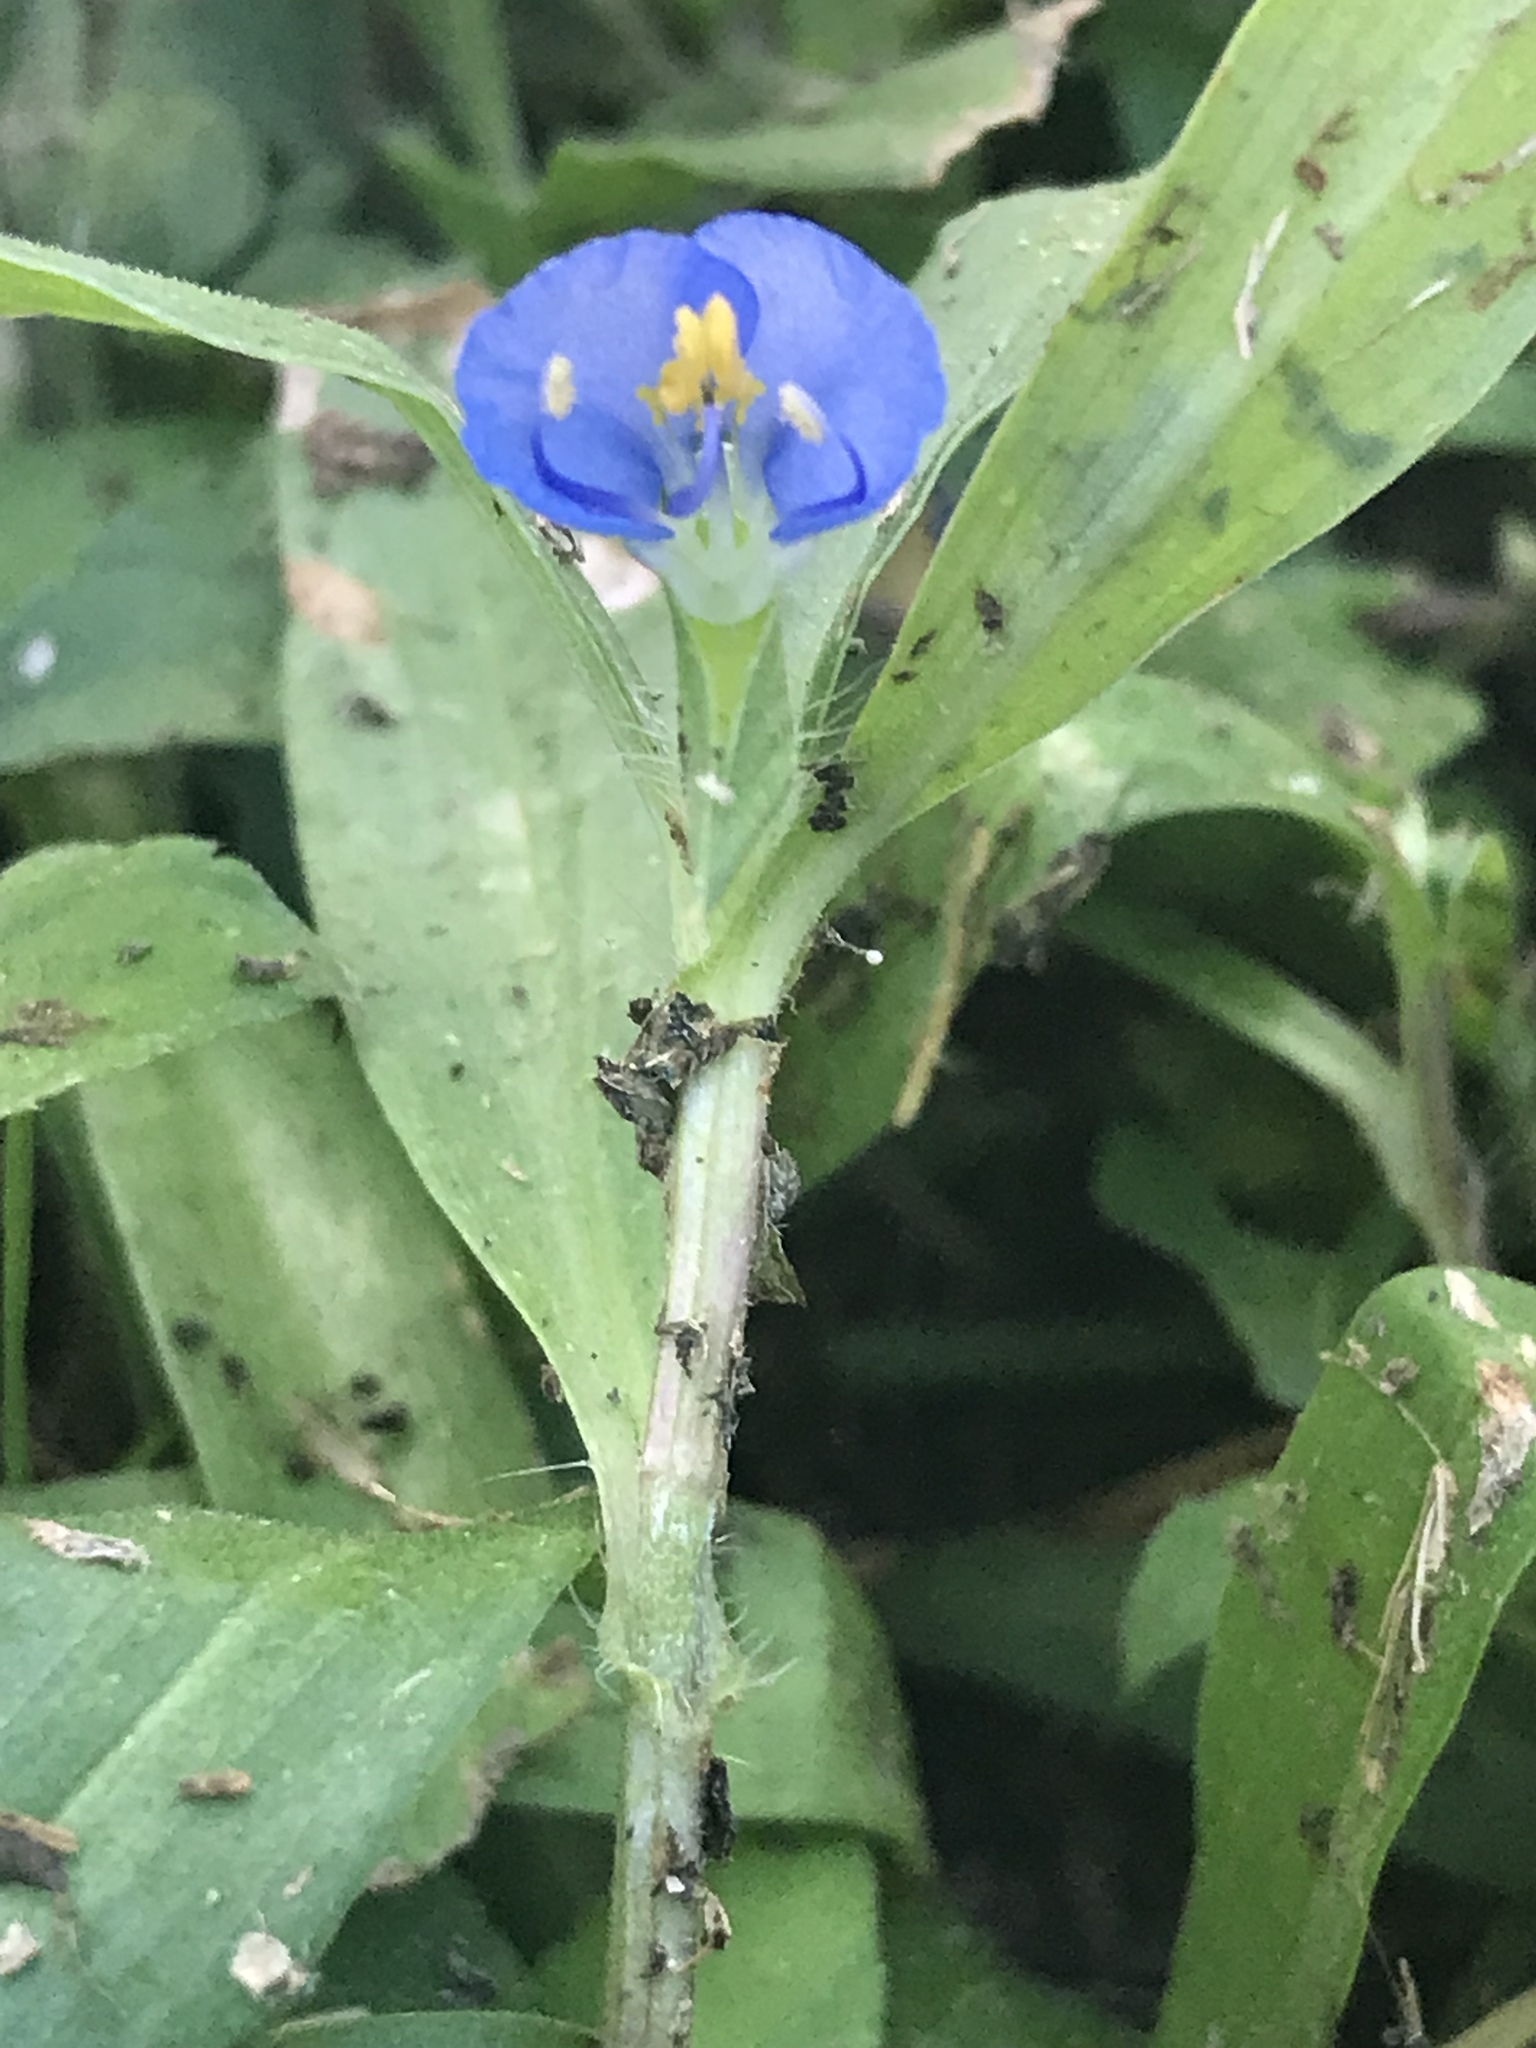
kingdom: Plantae
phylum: Tracheophyta
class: Liliopsida
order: Commelinales
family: Commelinaceae
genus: Commelina
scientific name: Commelina erecta
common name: Blousel blommetjie
